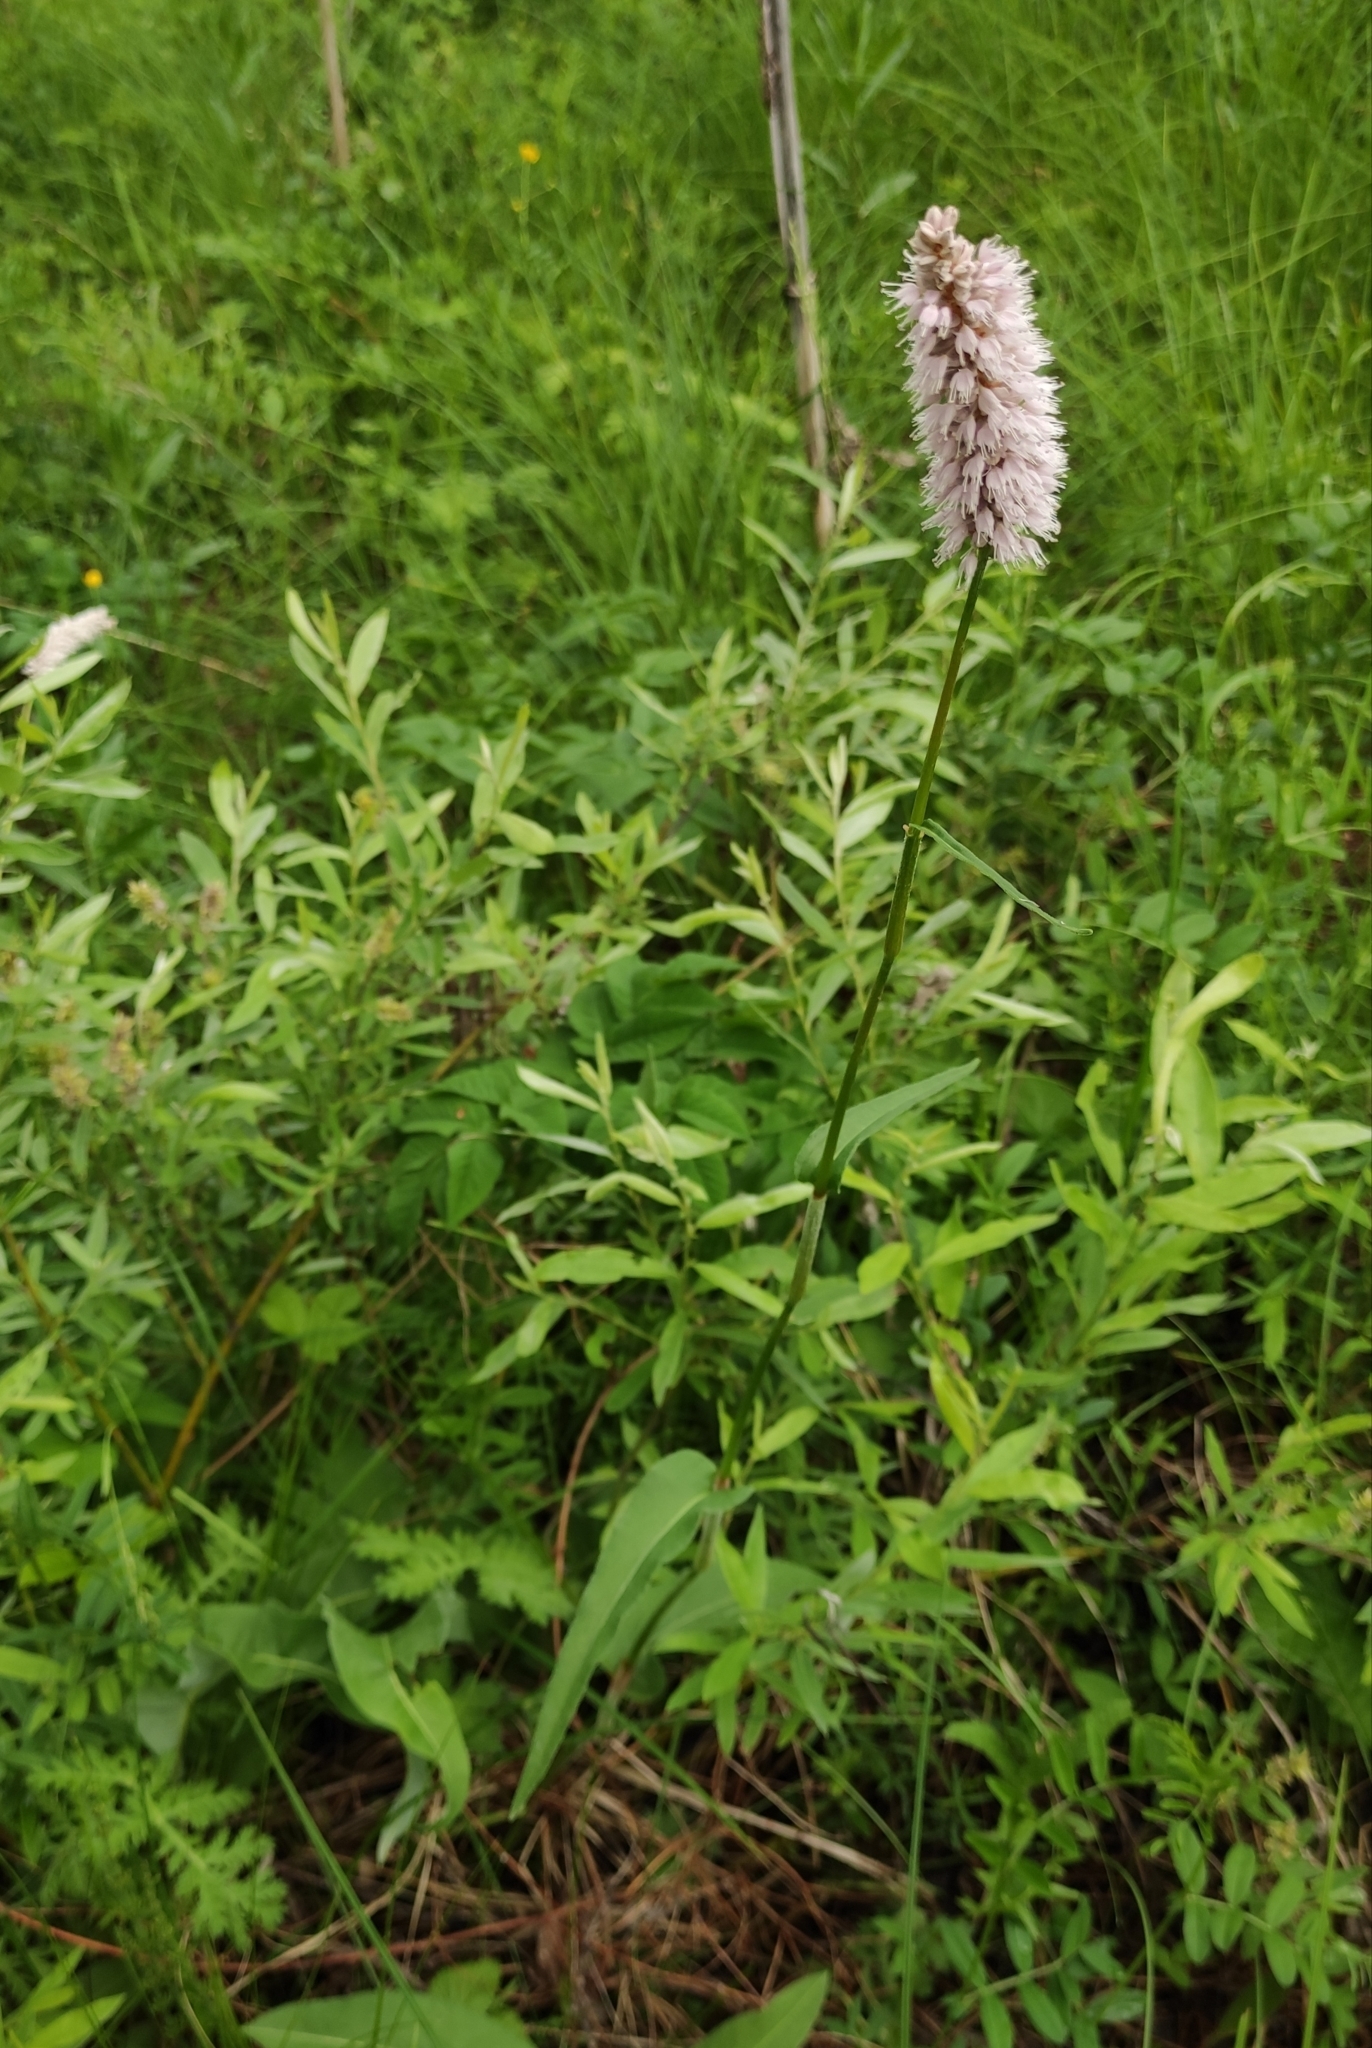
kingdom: Plantae
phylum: Tracheophyta
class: Magnoliopsida
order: Caryophyllales
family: Polygonaceae
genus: Bistorta
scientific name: Bistorta officinalis
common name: Common bistort
